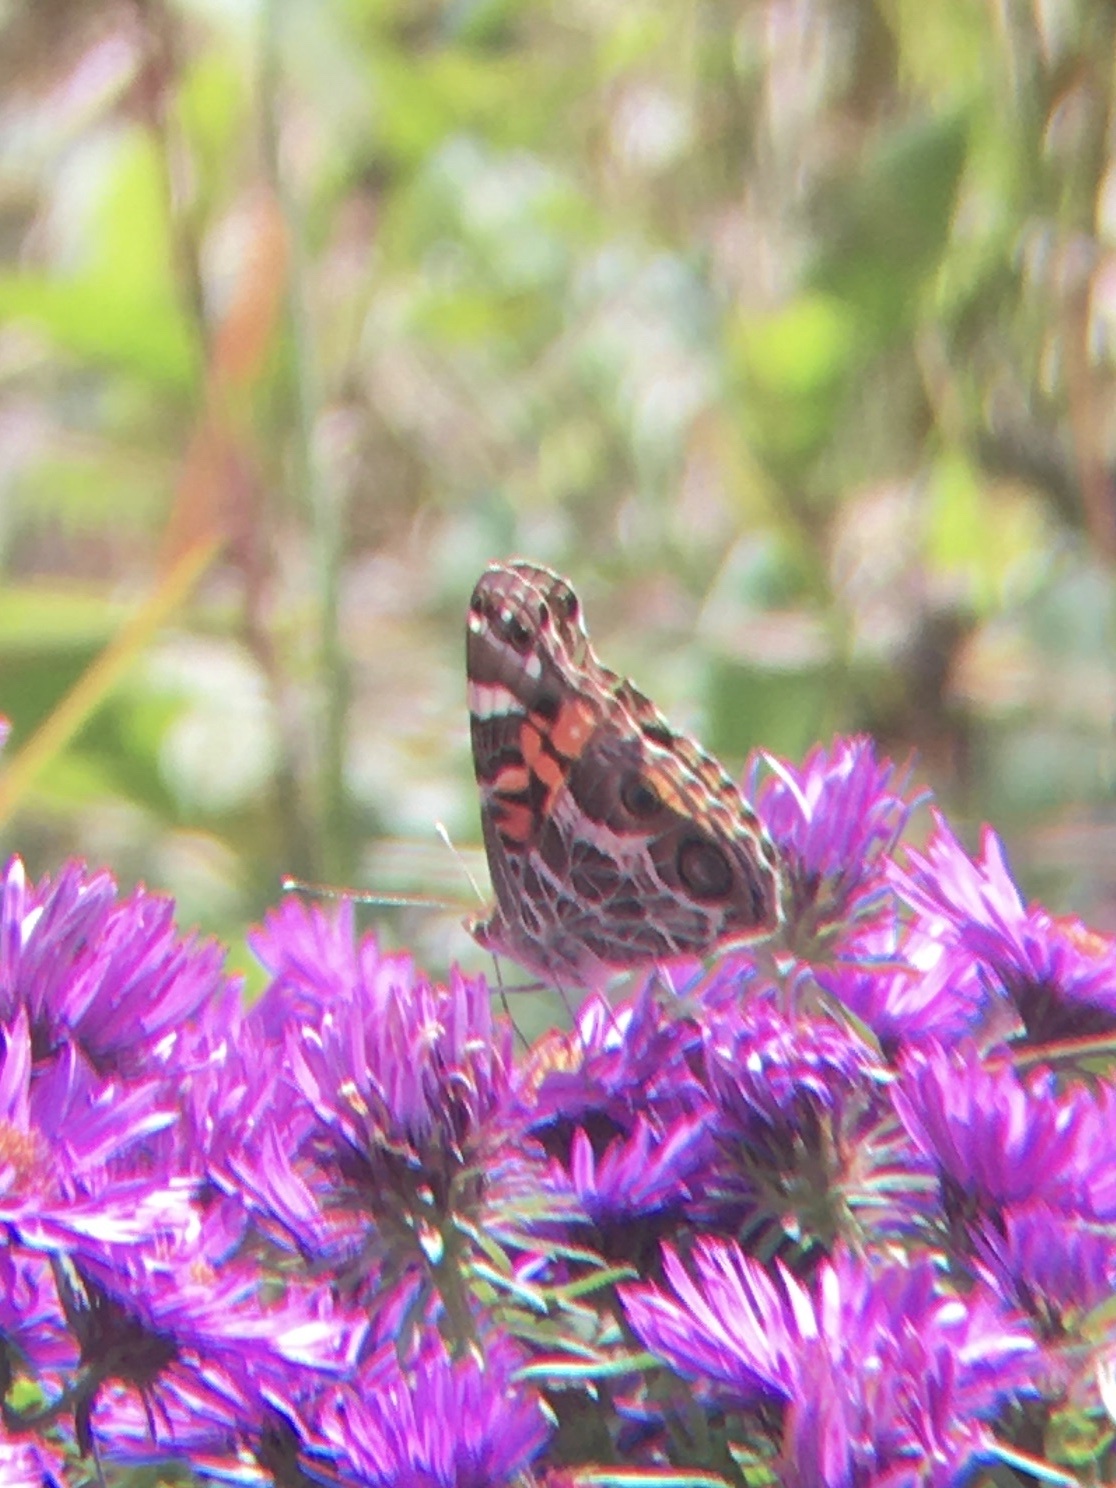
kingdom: Animalia
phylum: Arthropoda
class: Insecta
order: Lepidoptera
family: Nymphalidae
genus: Vanessa
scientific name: Vanessa virginiensis
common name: American lady
